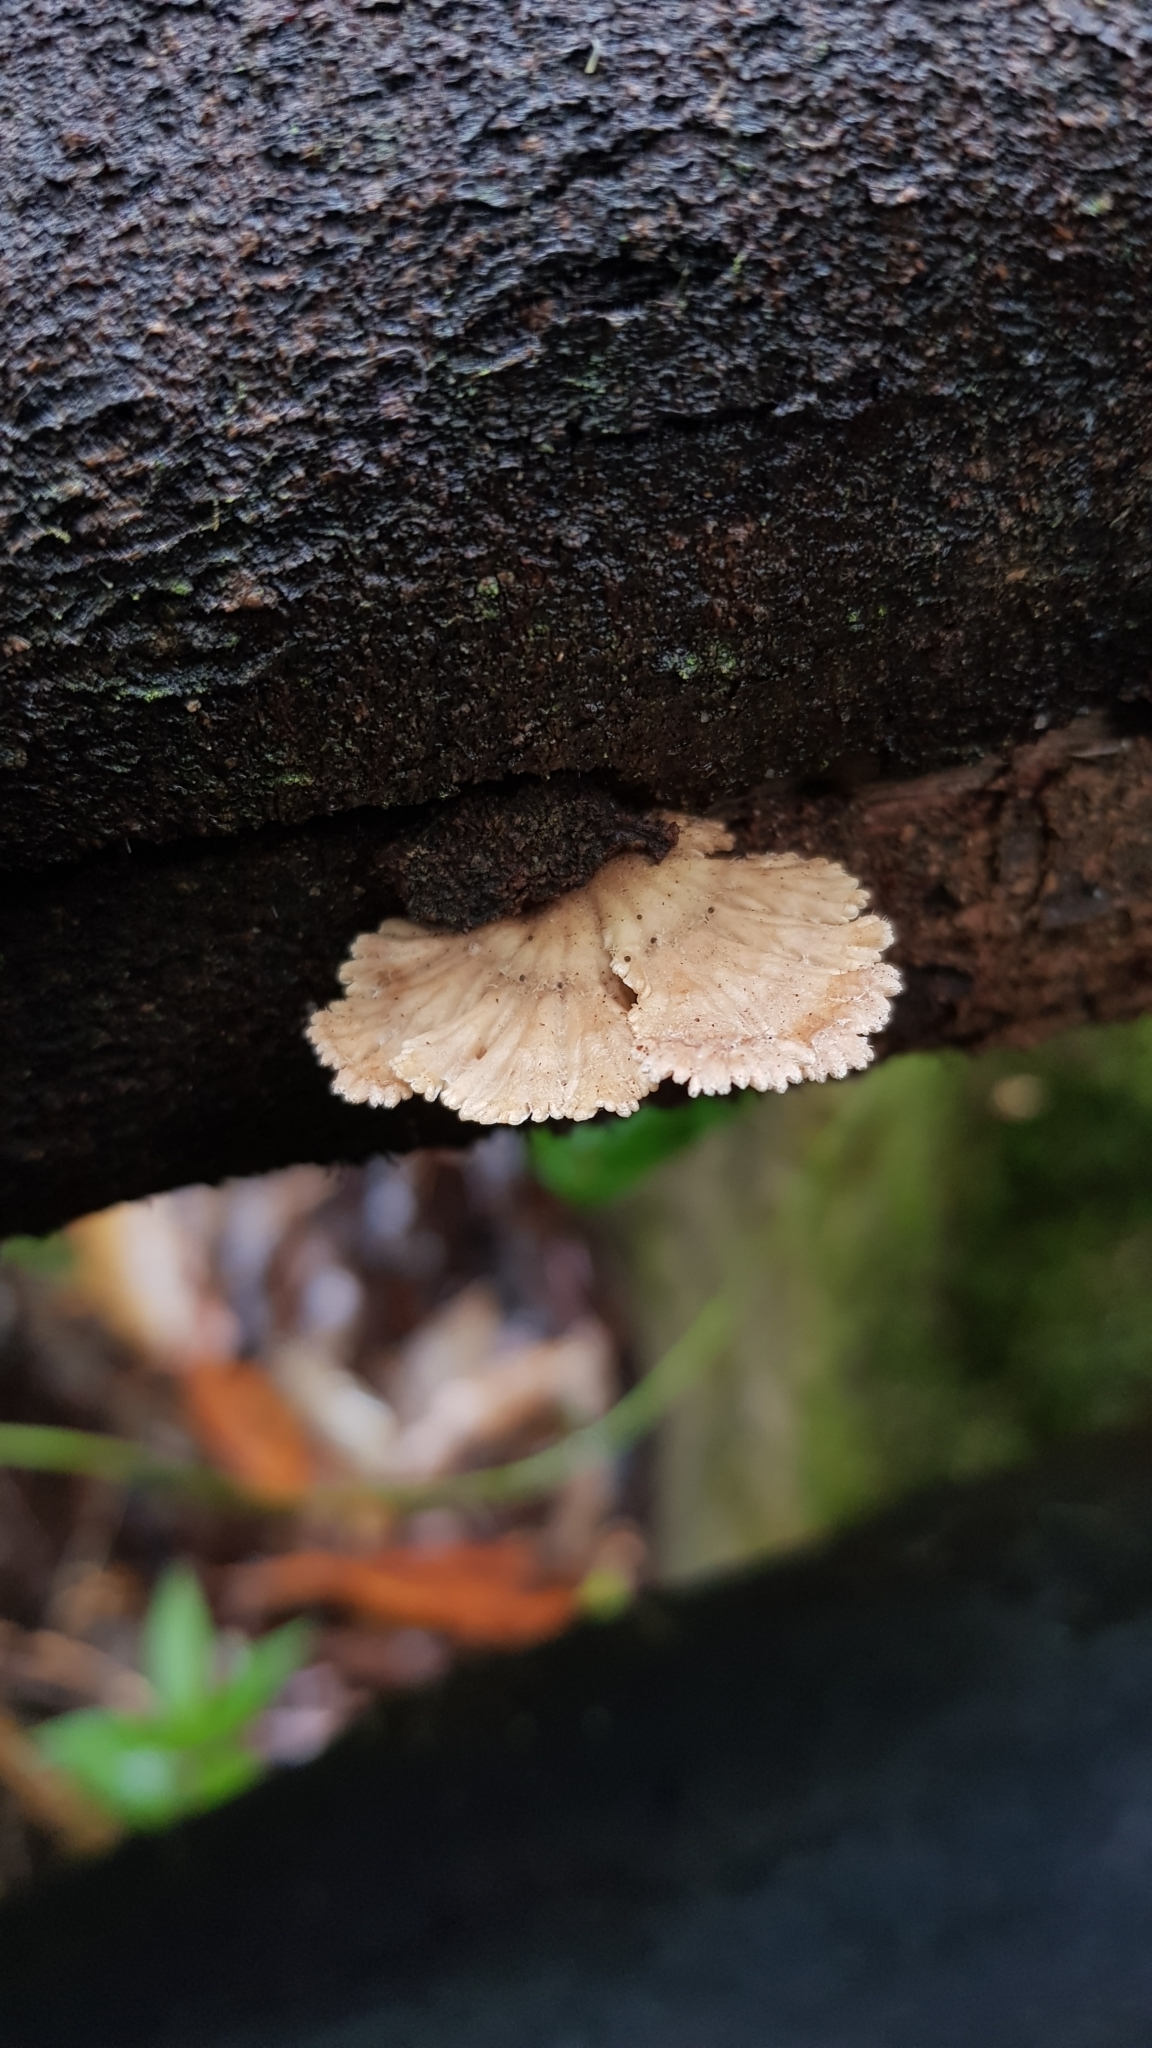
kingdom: Fungi
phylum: Basidiomycota
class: Agaricomycetes
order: Agaricales
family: Schizophyllaceae
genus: Schizophyllum
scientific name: Schizophyllum commune
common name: Common porecrust
